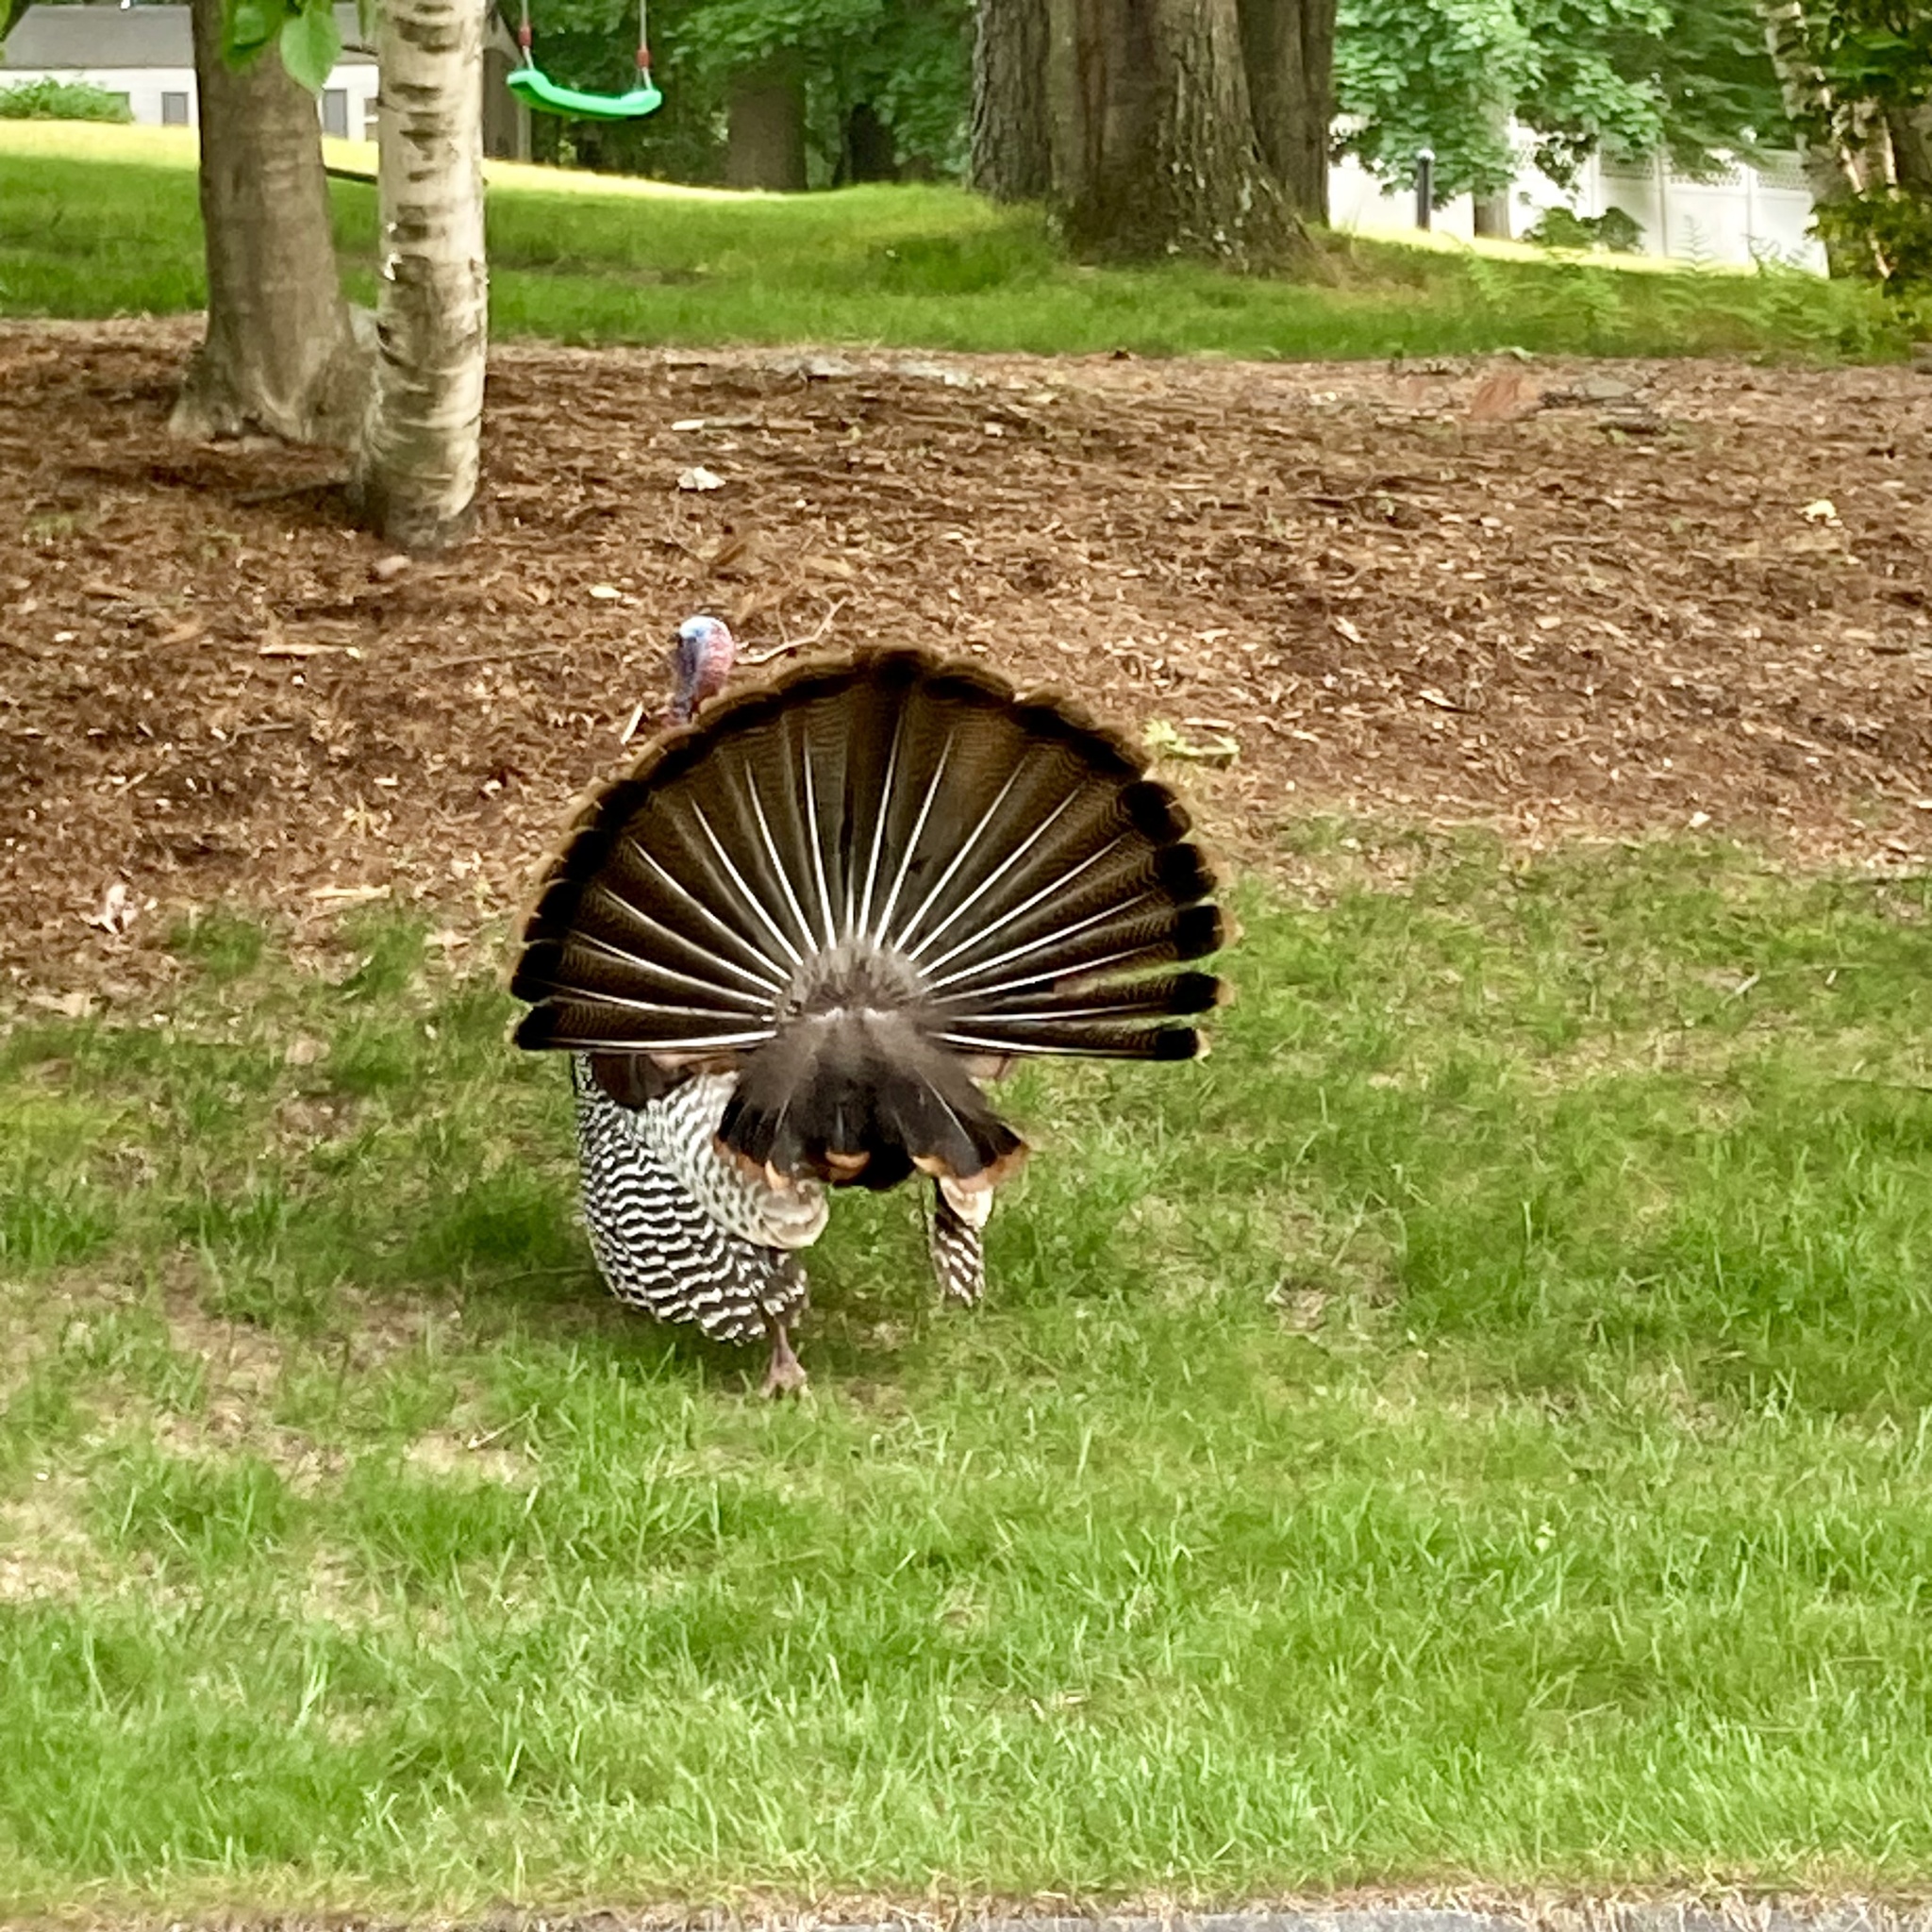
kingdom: Animalia
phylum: Chordata
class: Aves
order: Galliformes
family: Phasianidae
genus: Meleagris
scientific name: Meleagris gallopavo
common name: Wild turkey
